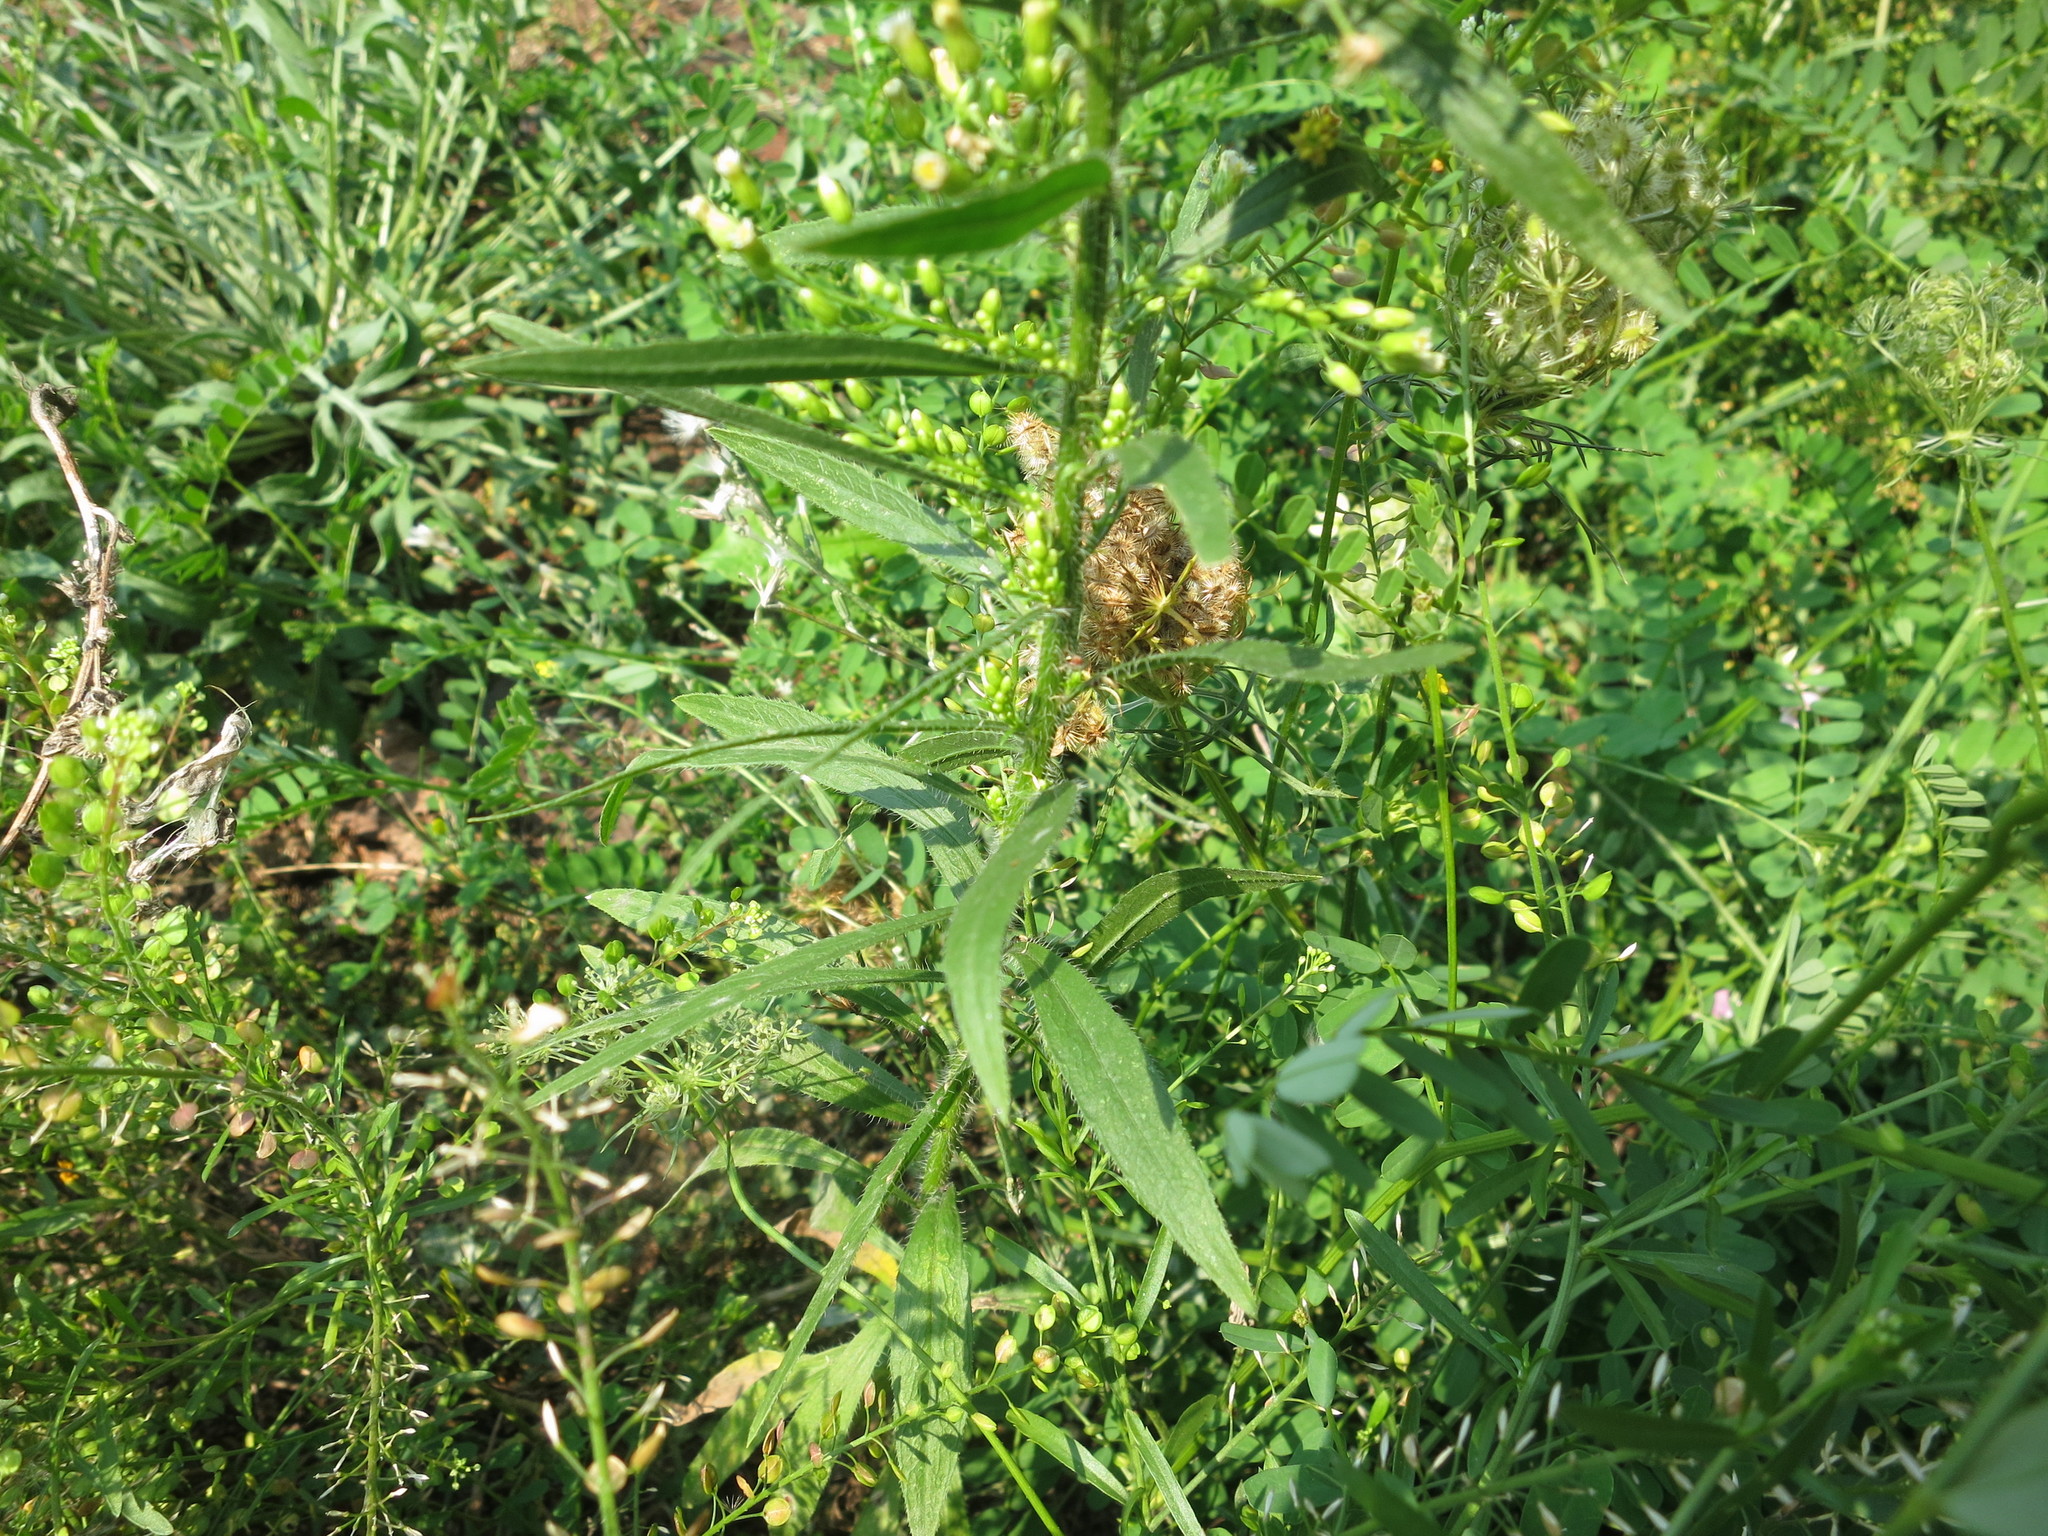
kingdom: Plantae
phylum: Tracheophyta
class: Magnoliopsida
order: Asterales
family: Asteraceae
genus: Erigeron
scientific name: Erigeron canadensis
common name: Canadian fleabane
